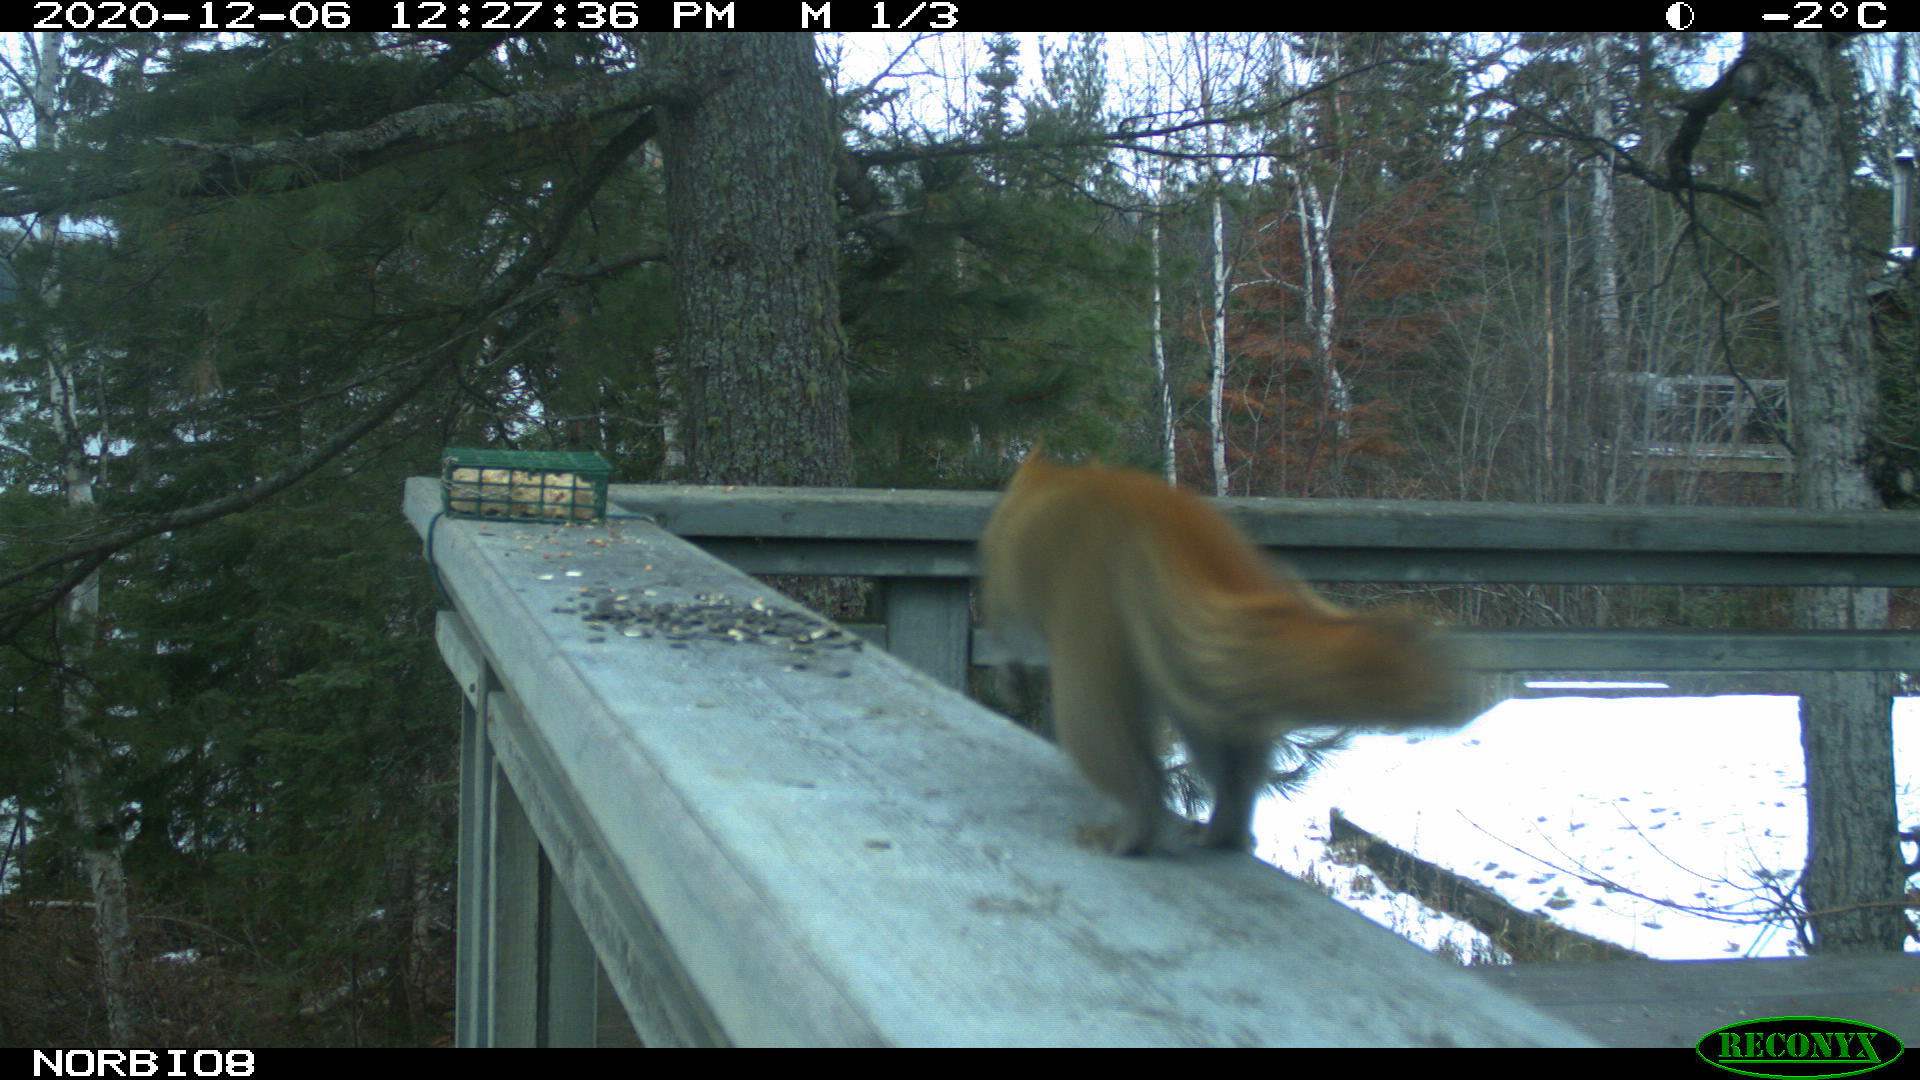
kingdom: Animalia
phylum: Chordata
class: Mammalia
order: Rodentia
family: Sciuridae
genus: Tamiasciurus
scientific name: Tamiasciurus hudsonicus
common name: Red squirrel
